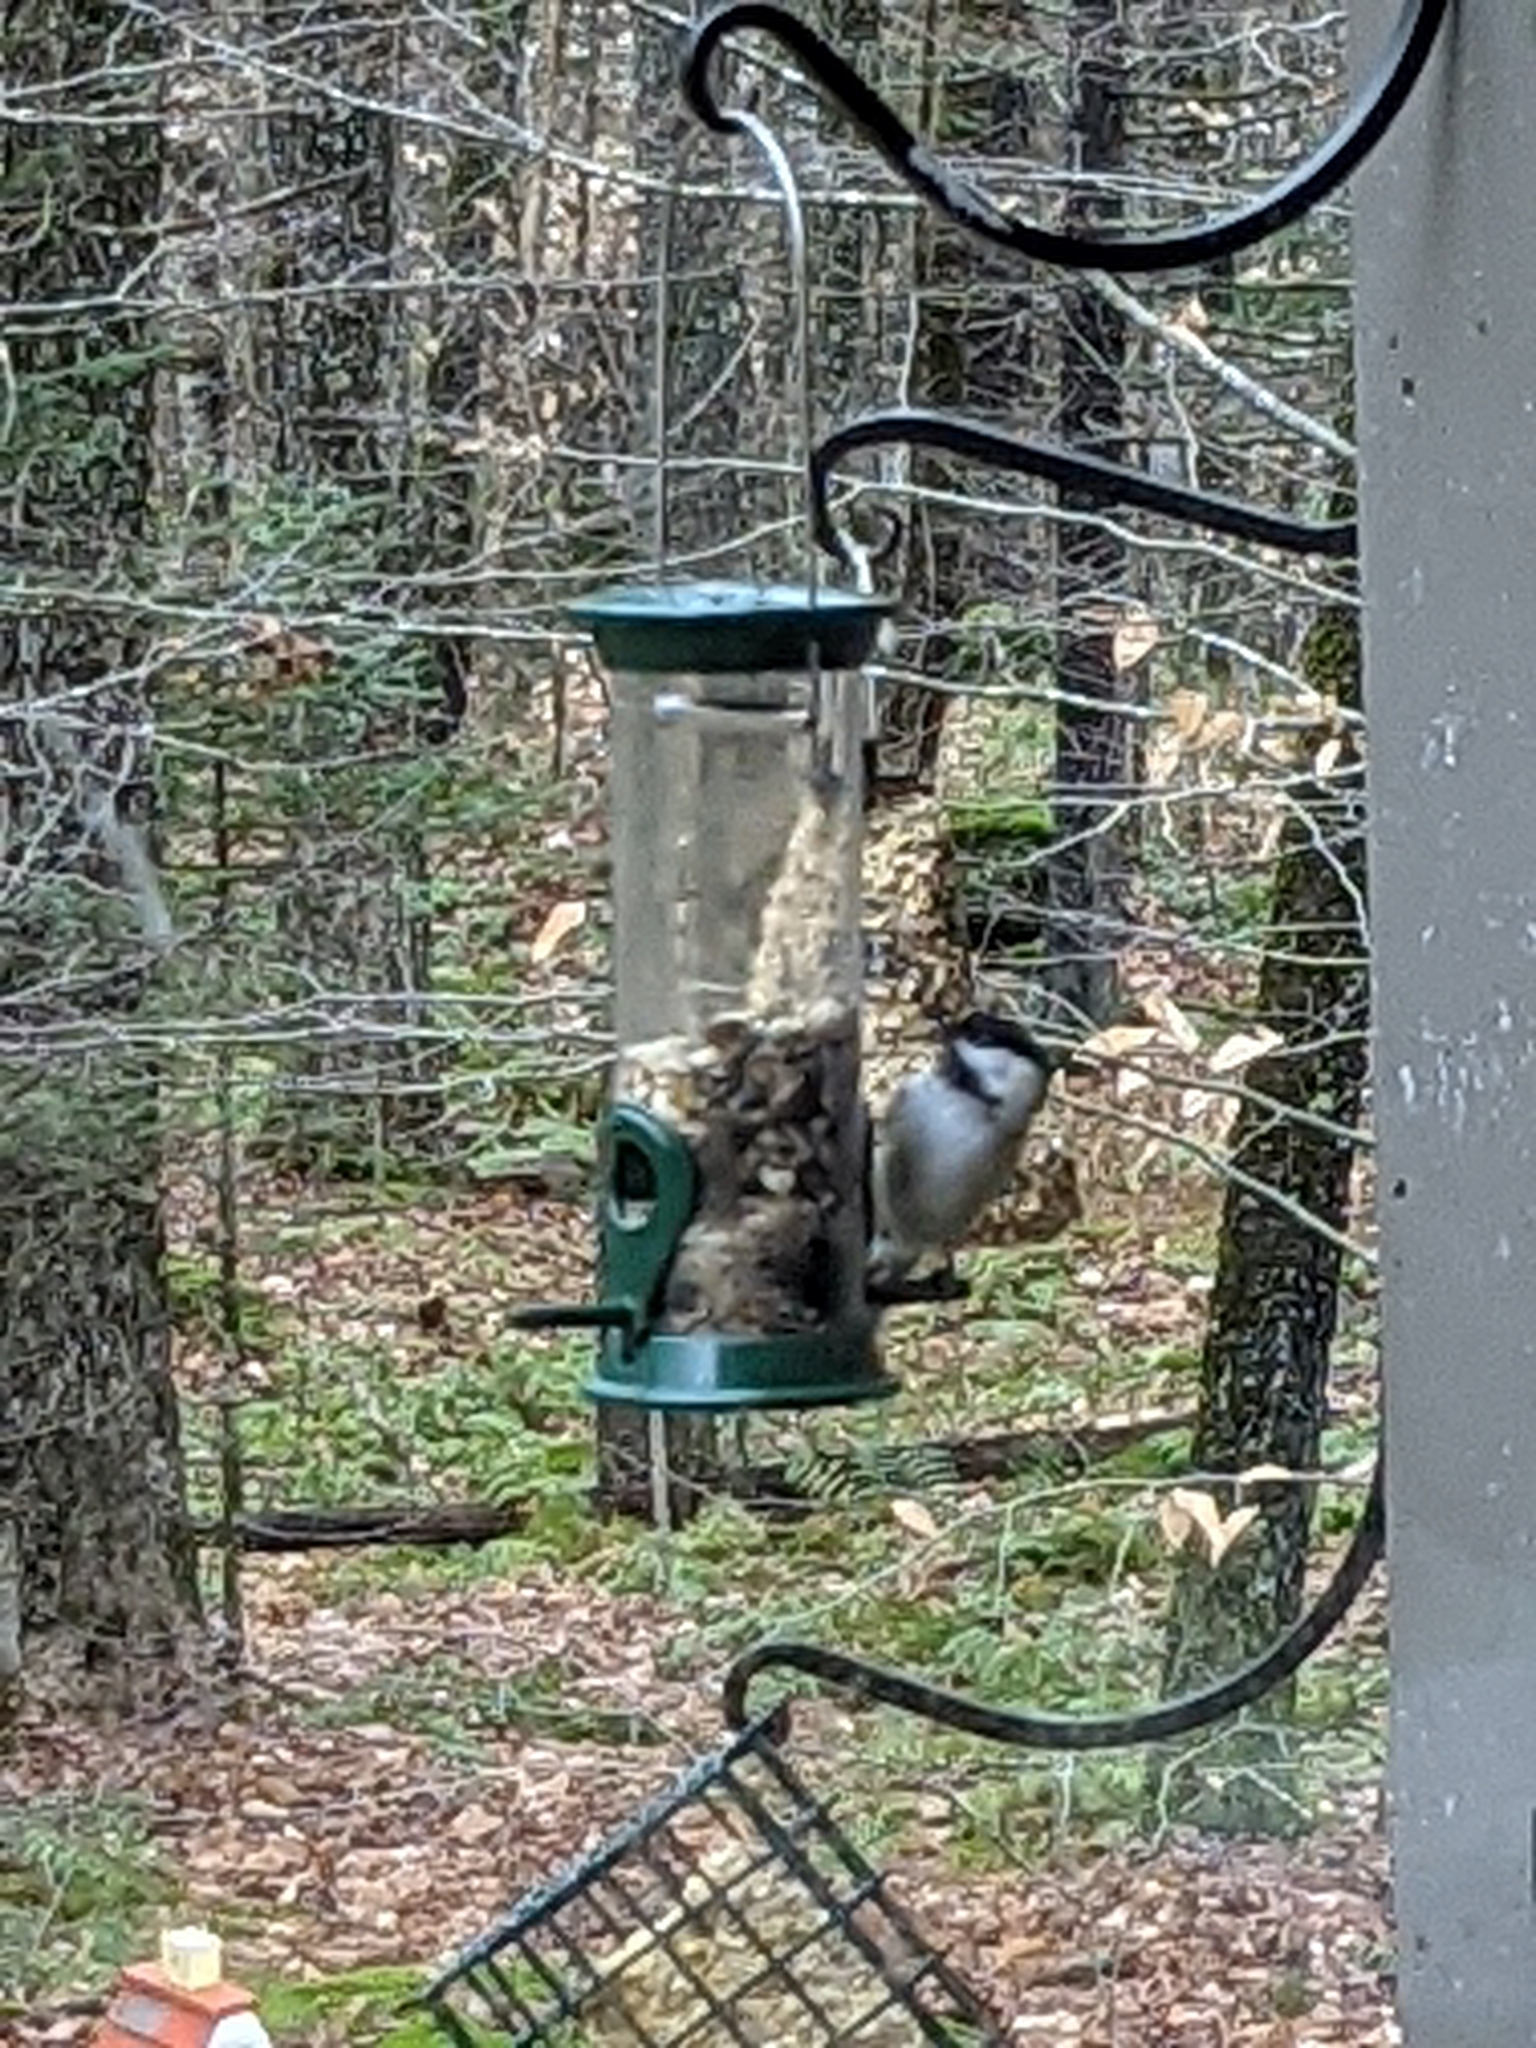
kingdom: Animalia
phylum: Chordata
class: Aves
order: Passeriformes
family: Paridae
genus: Poecile
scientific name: Poecile atricapillus
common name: Black-capped chickadee
